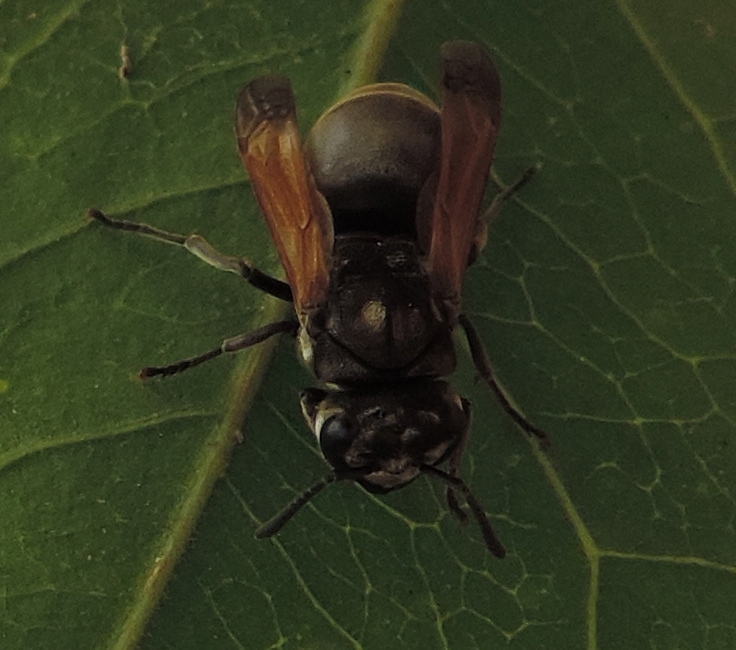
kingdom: Animalia
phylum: Arthropoda
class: Insecta
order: Hymenoptera
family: Vespidae
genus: Brachygastra
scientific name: Brachygastra mellifica
